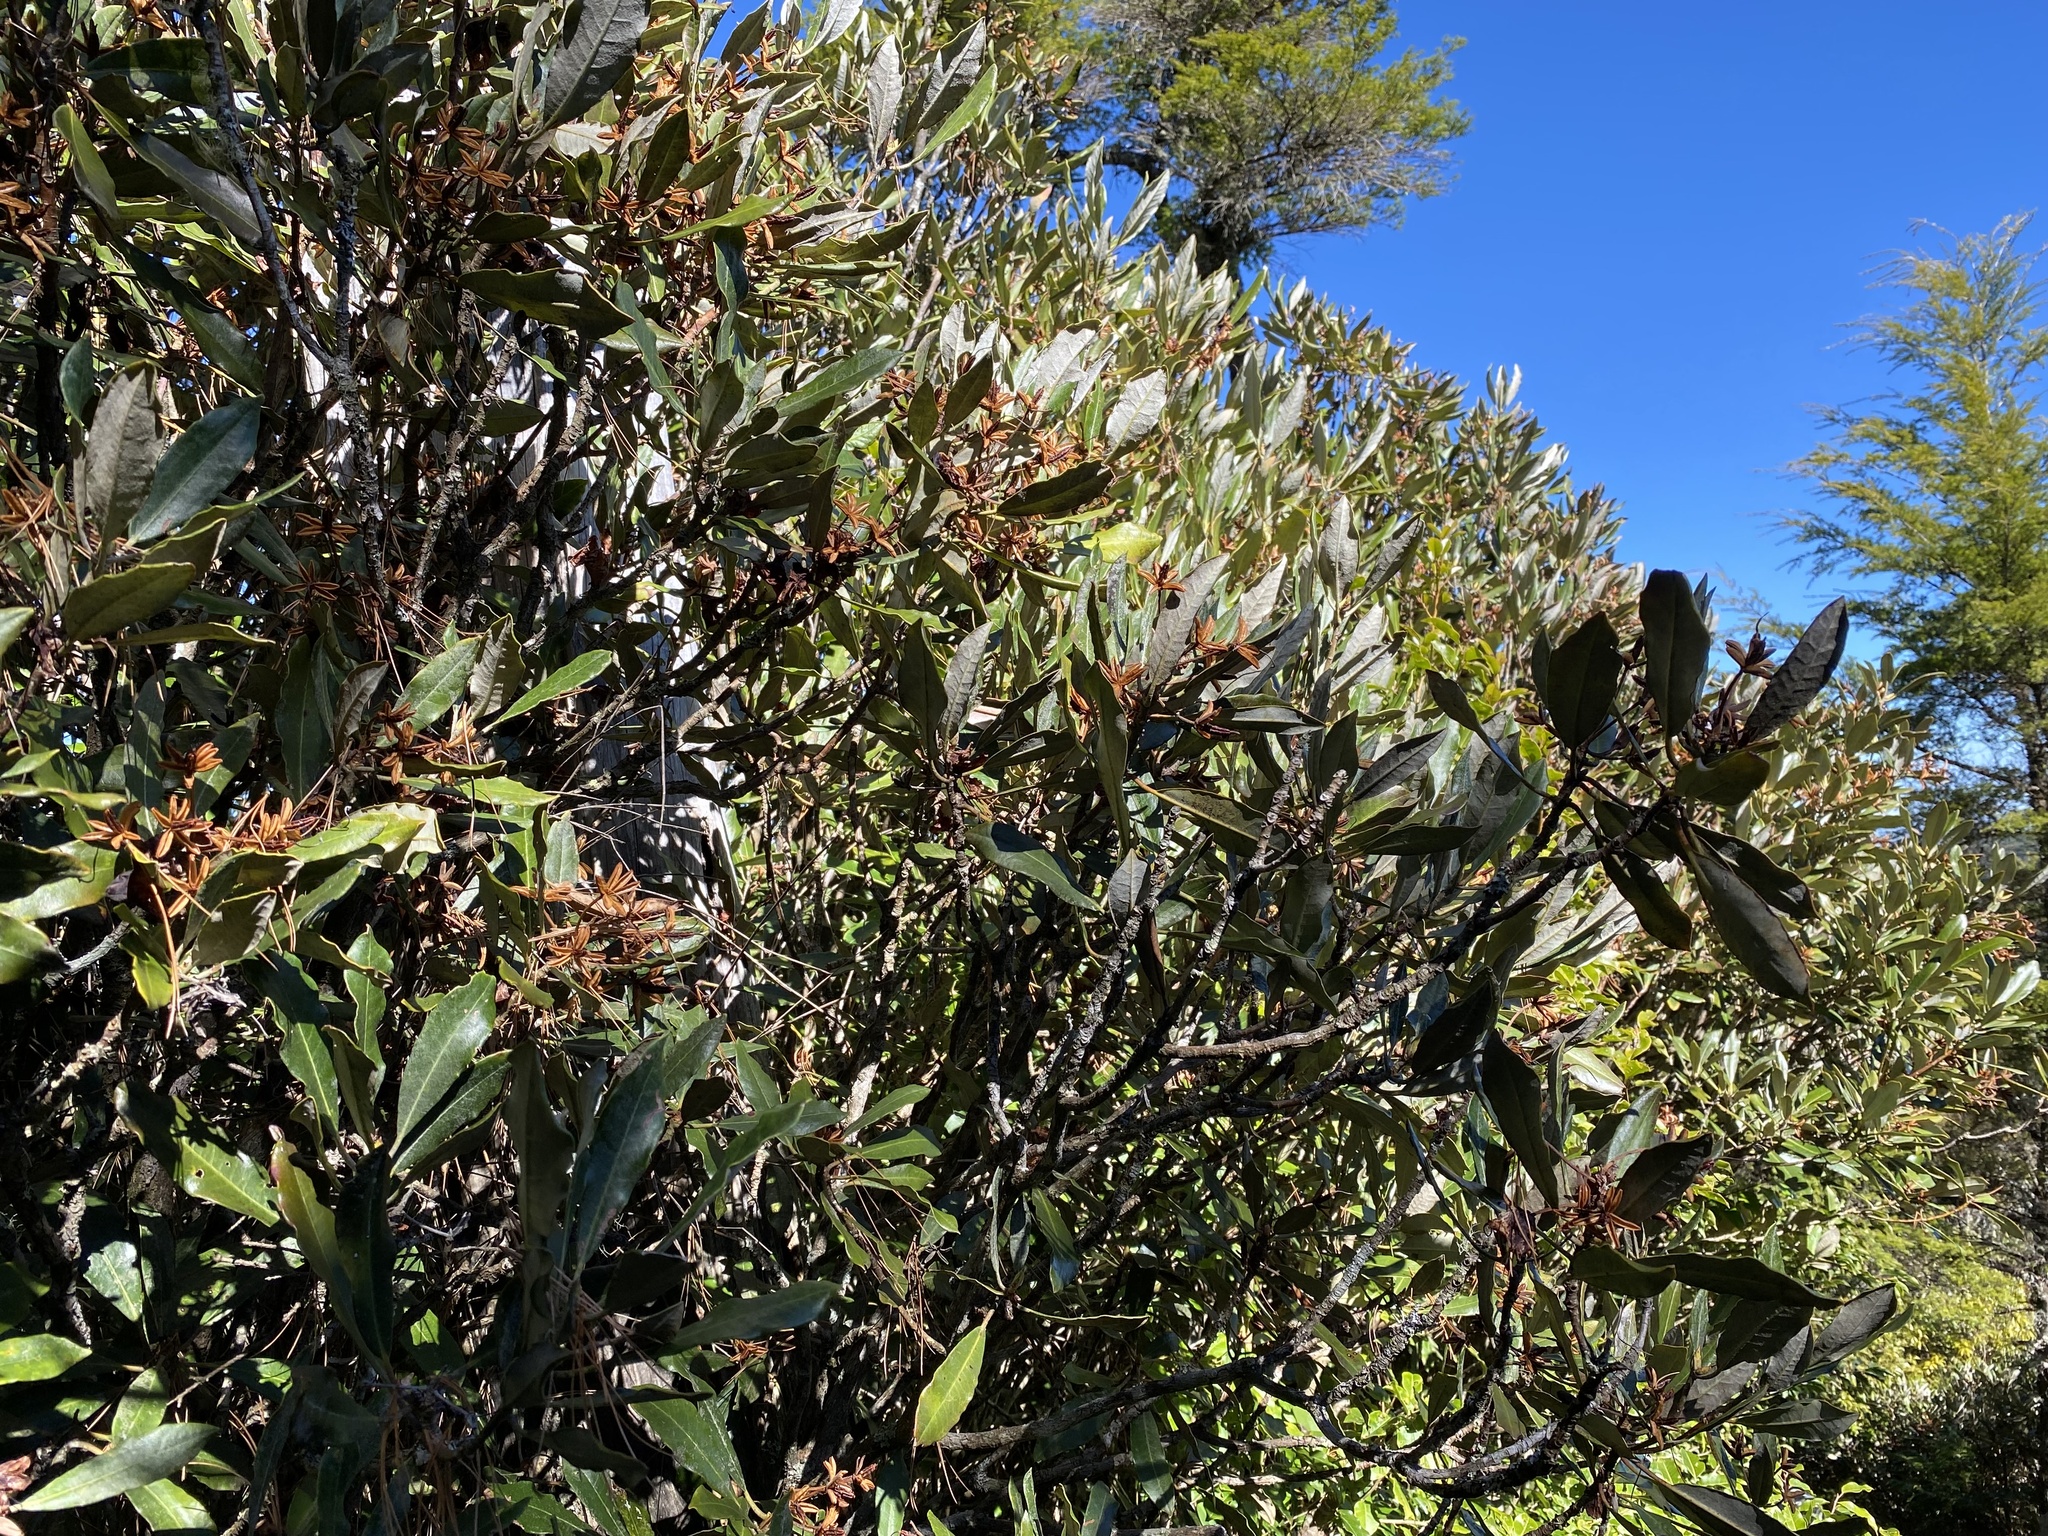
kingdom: Plantae
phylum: Tracheophyta
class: Magnoliopsida
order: Ericales
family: Ericaceae
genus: Rhododendron
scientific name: Rhododendron formosanum
